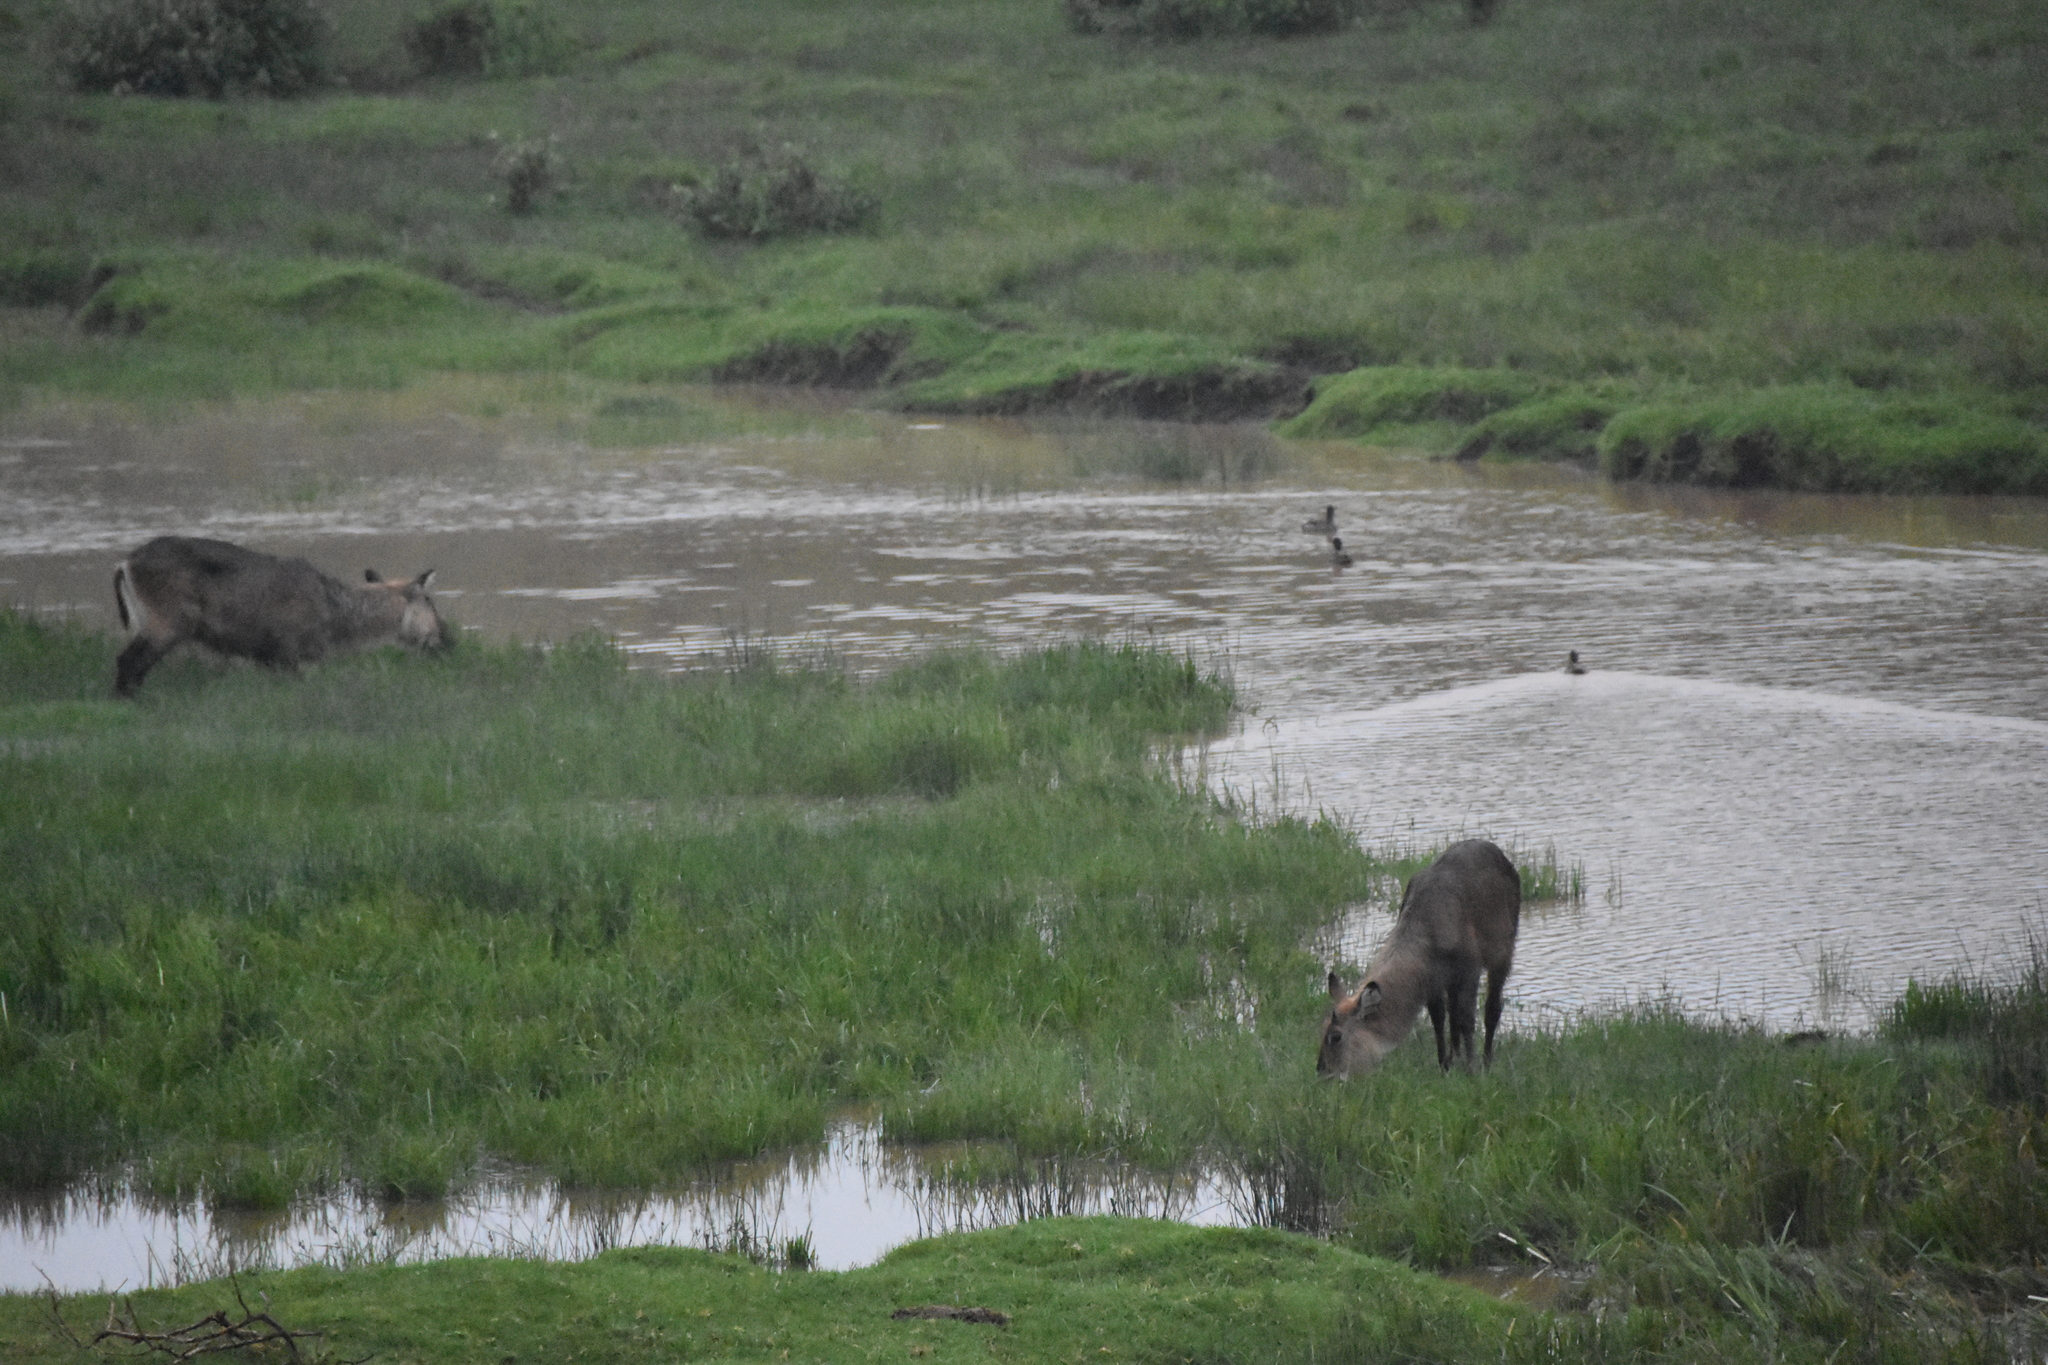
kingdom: Animalia
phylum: Chordata
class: Mammalia
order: Artiodactyla
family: Bovidae
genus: Kobus
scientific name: Kobus ellipsiprymnus
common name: Waterbuck
